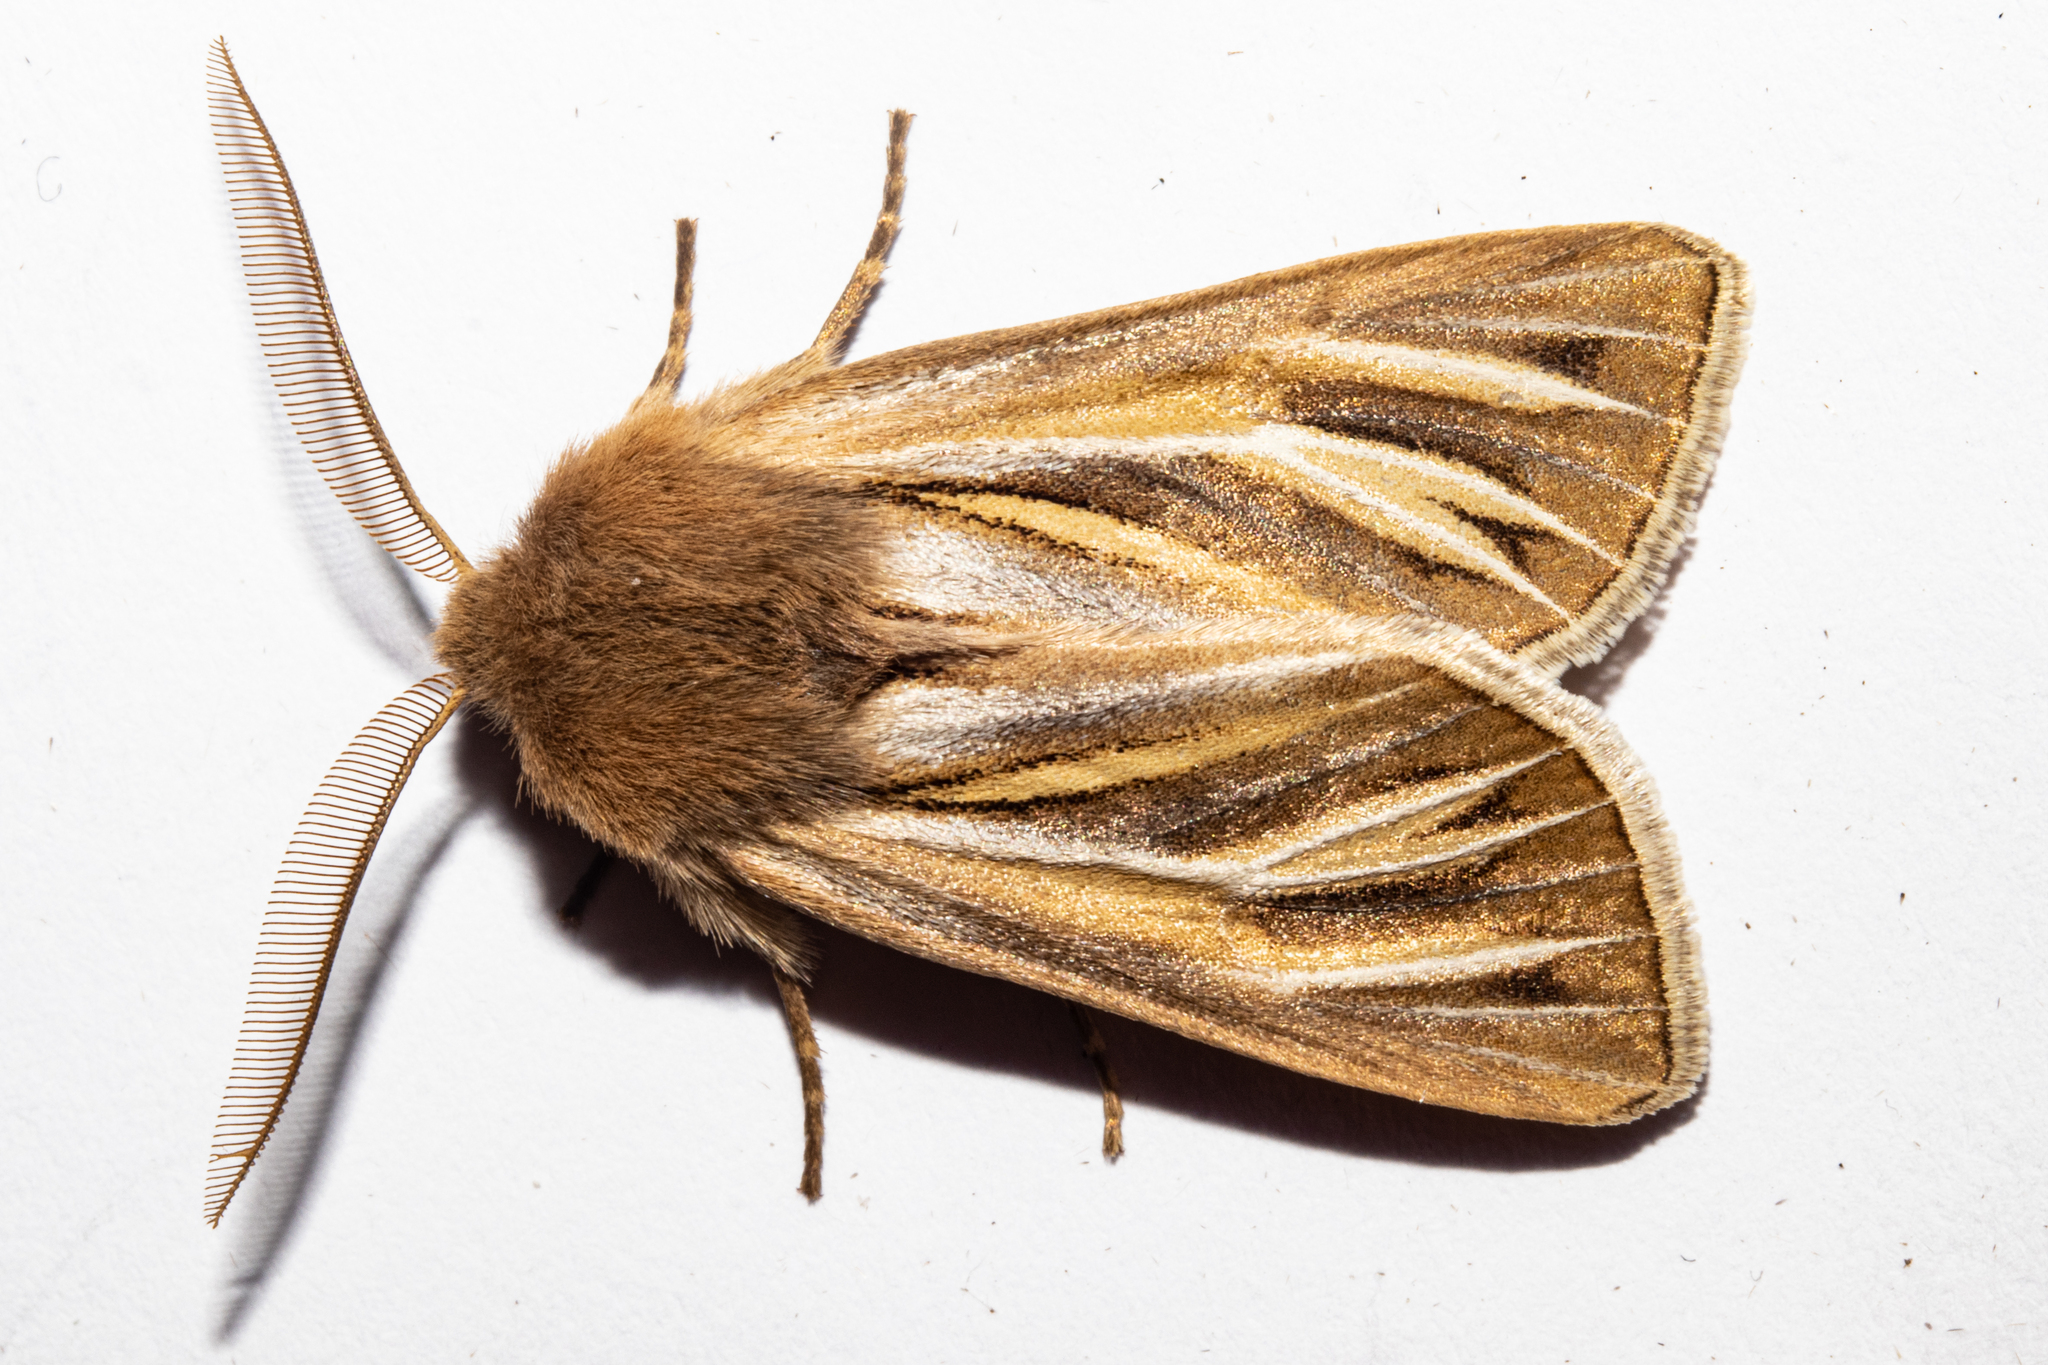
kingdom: Animalia
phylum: Arthropoda
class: Insecta
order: Lepidoptera
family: Noctuidae
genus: Ichneutica
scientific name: Ichneutica caraunias
